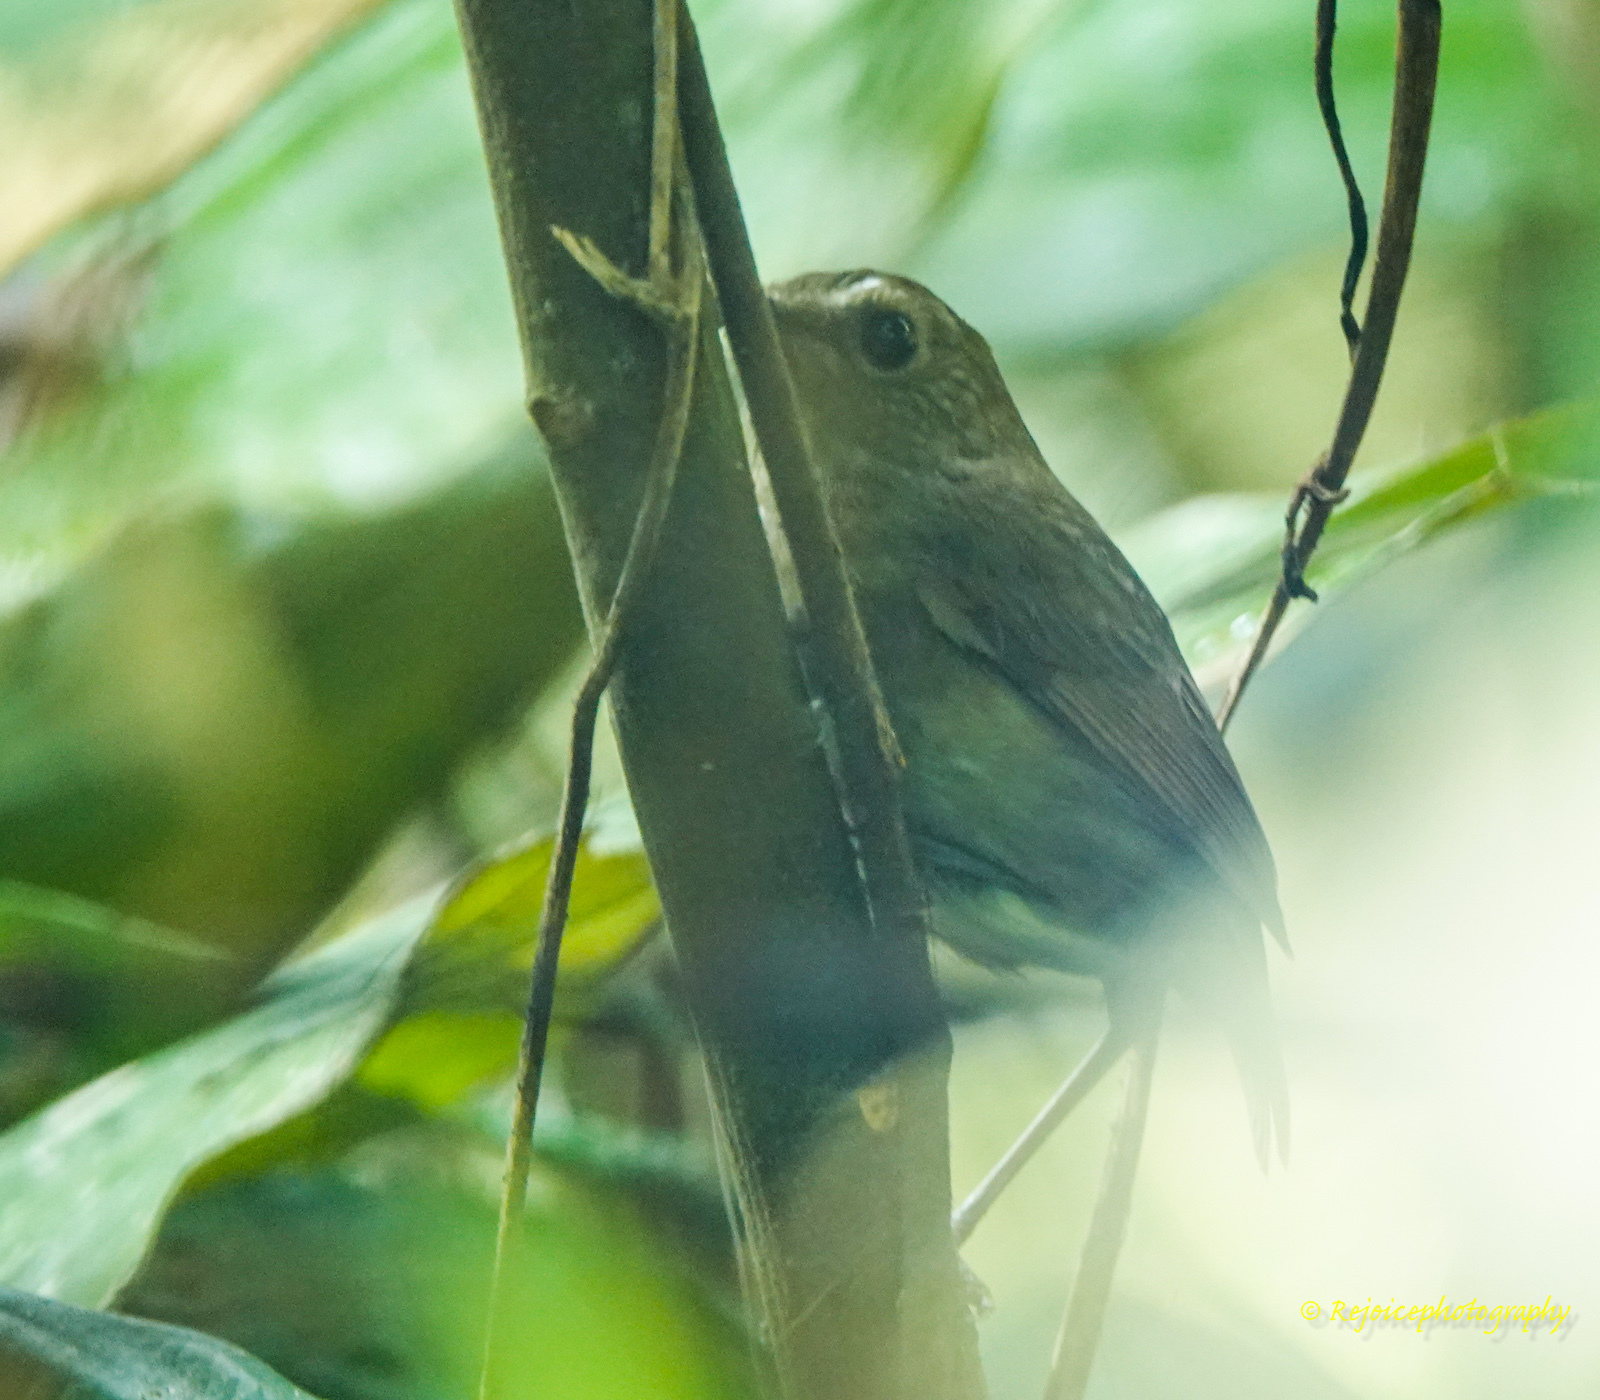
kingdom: Animalia
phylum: Chordata
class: Aves
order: Passeriformes
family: Muscicapidae
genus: Brachypteryx
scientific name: Brachypteryx leucophris
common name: Lesser shortwing
